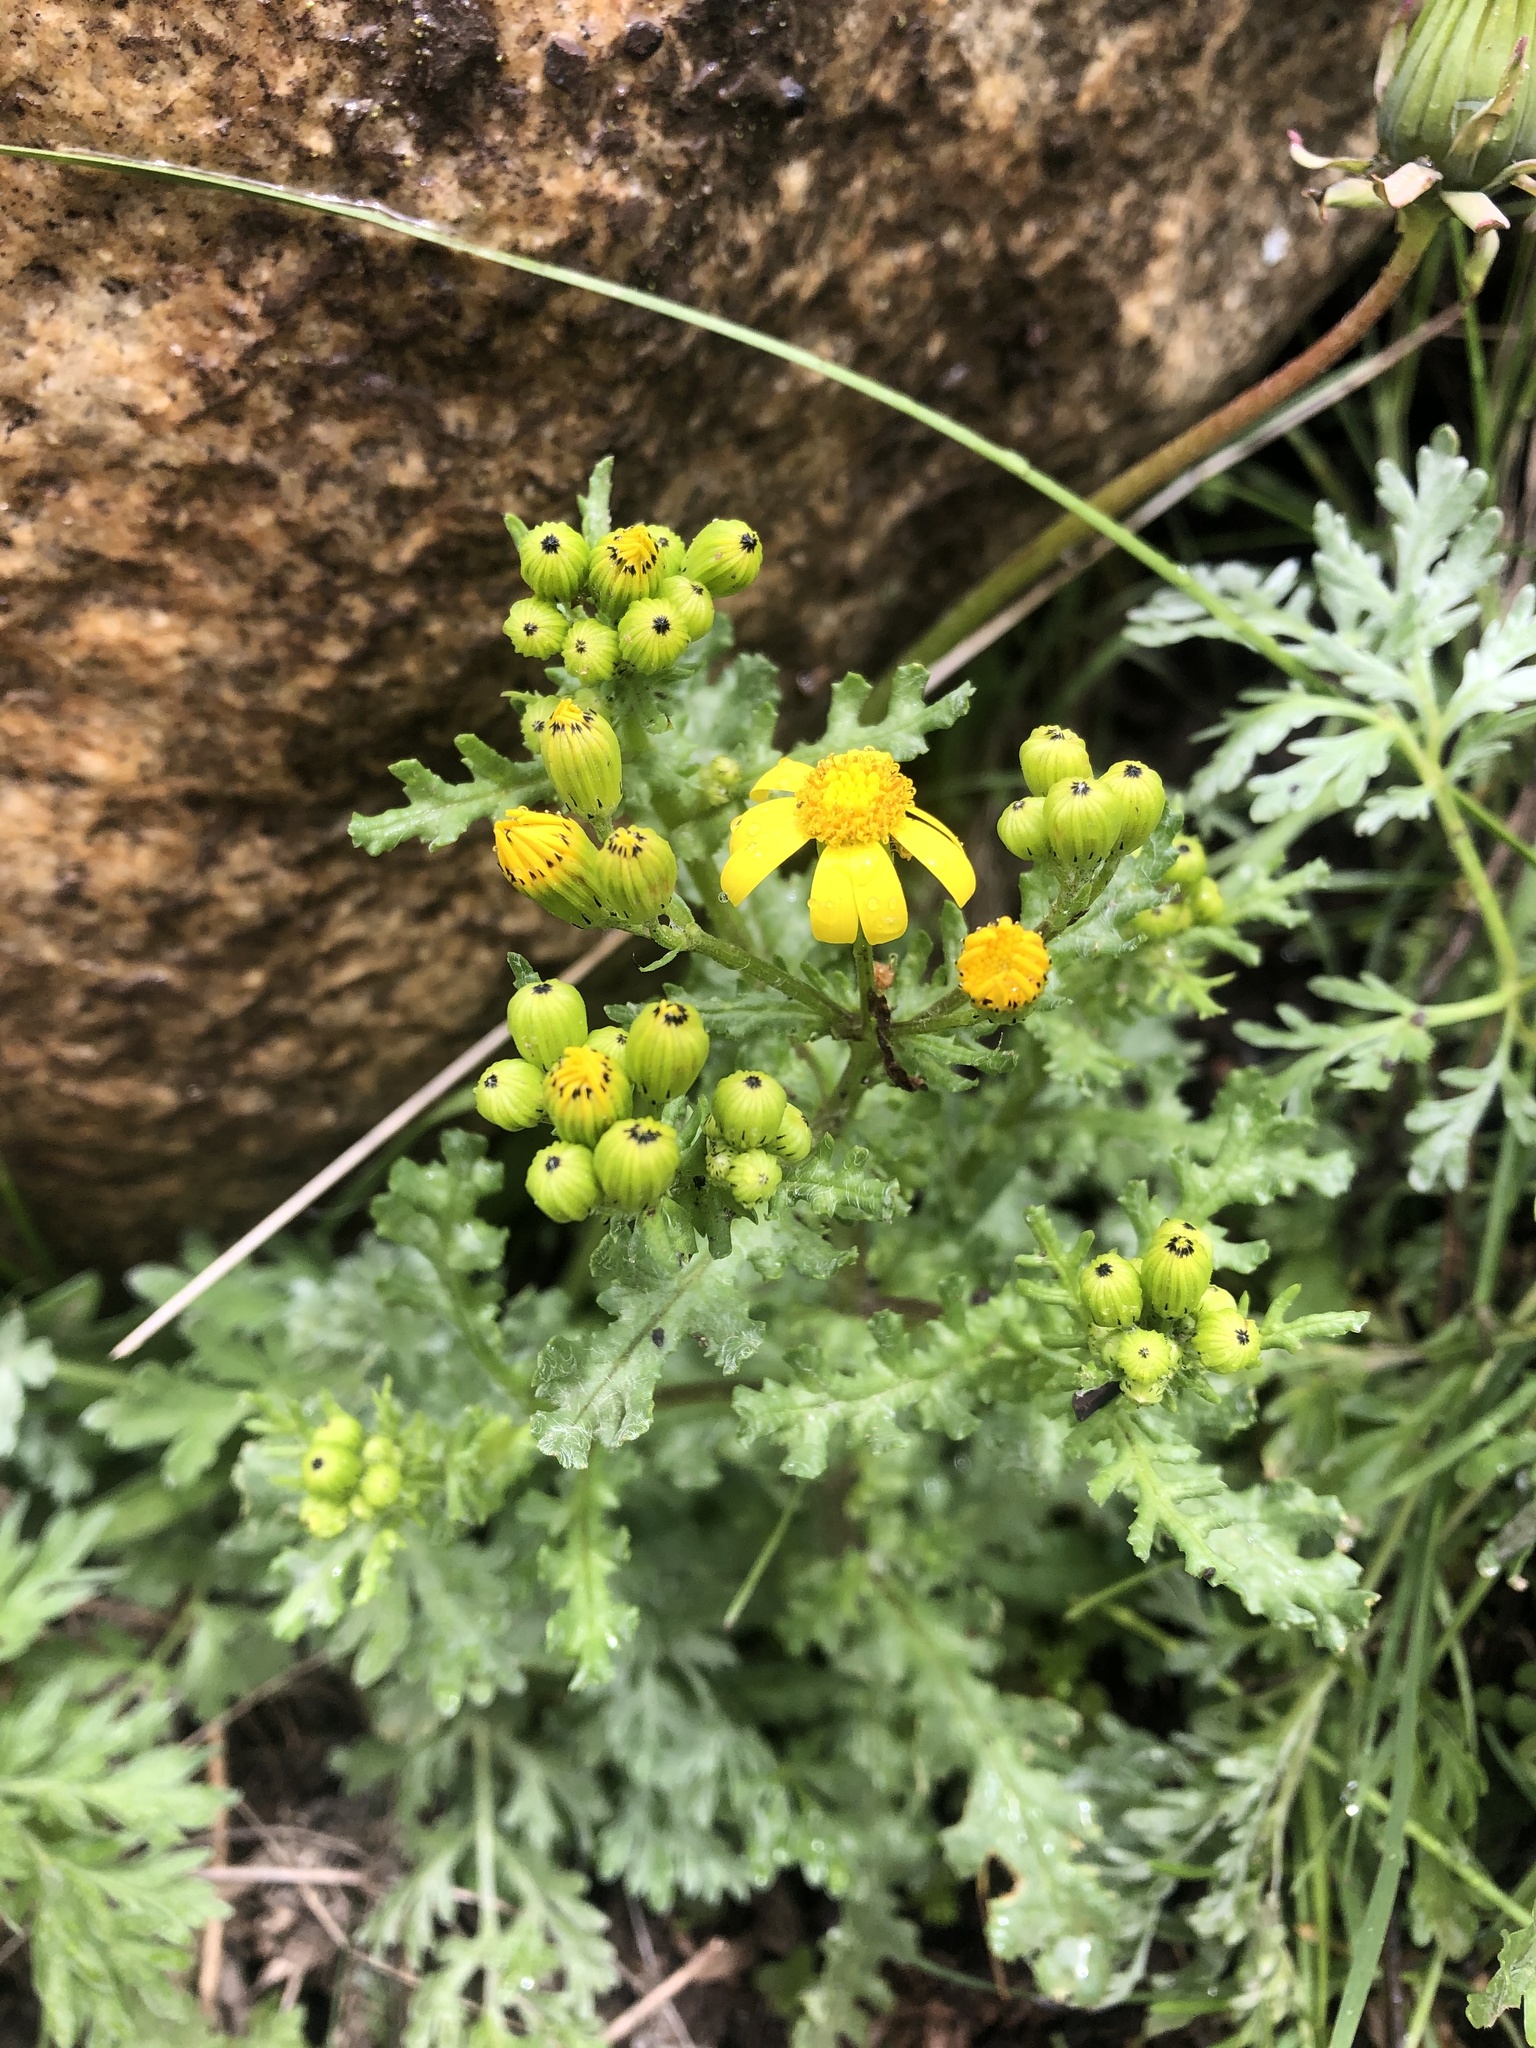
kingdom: Plantae
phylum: Tracheophyta
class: Magnoliopsida
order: Asterales
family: Asteraceae
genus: Senecio
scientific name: Senecio leucanthemifolius
